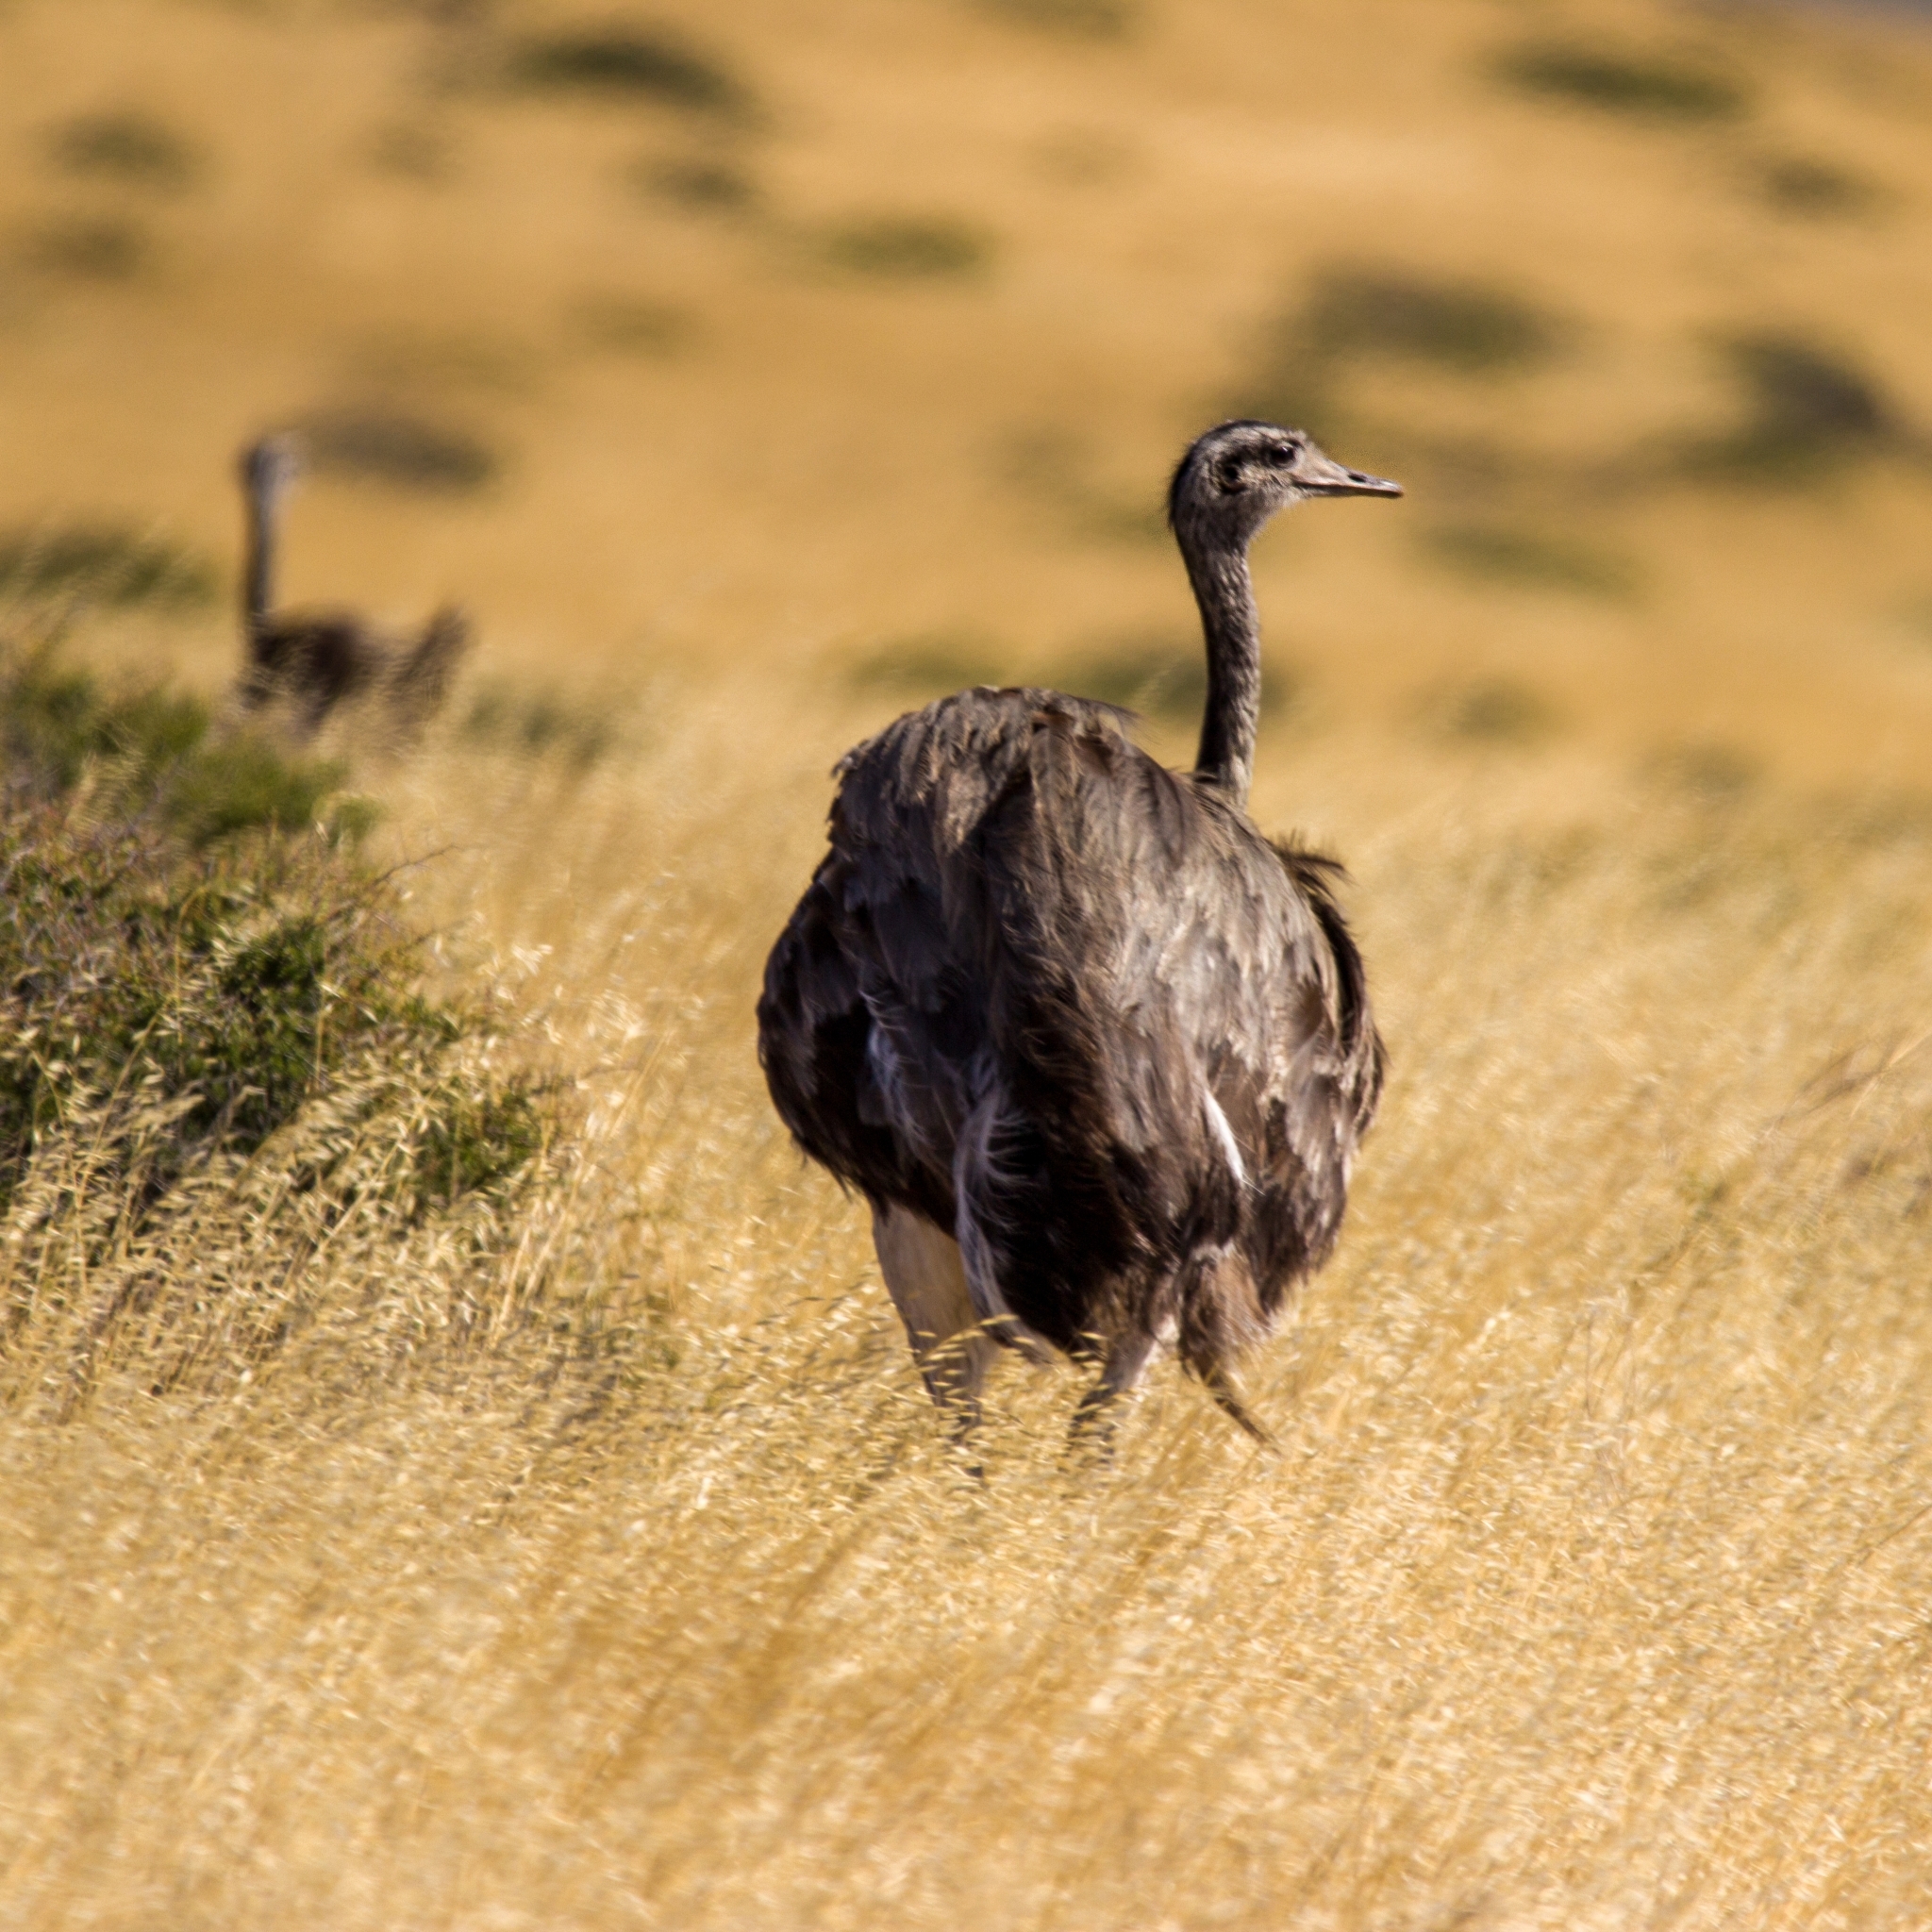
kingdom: Animalia
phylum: Chordata
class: Aves
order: Rheiformes
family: Rheidae
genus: Rhea
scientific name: Rhea americana
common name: Greater rhea
